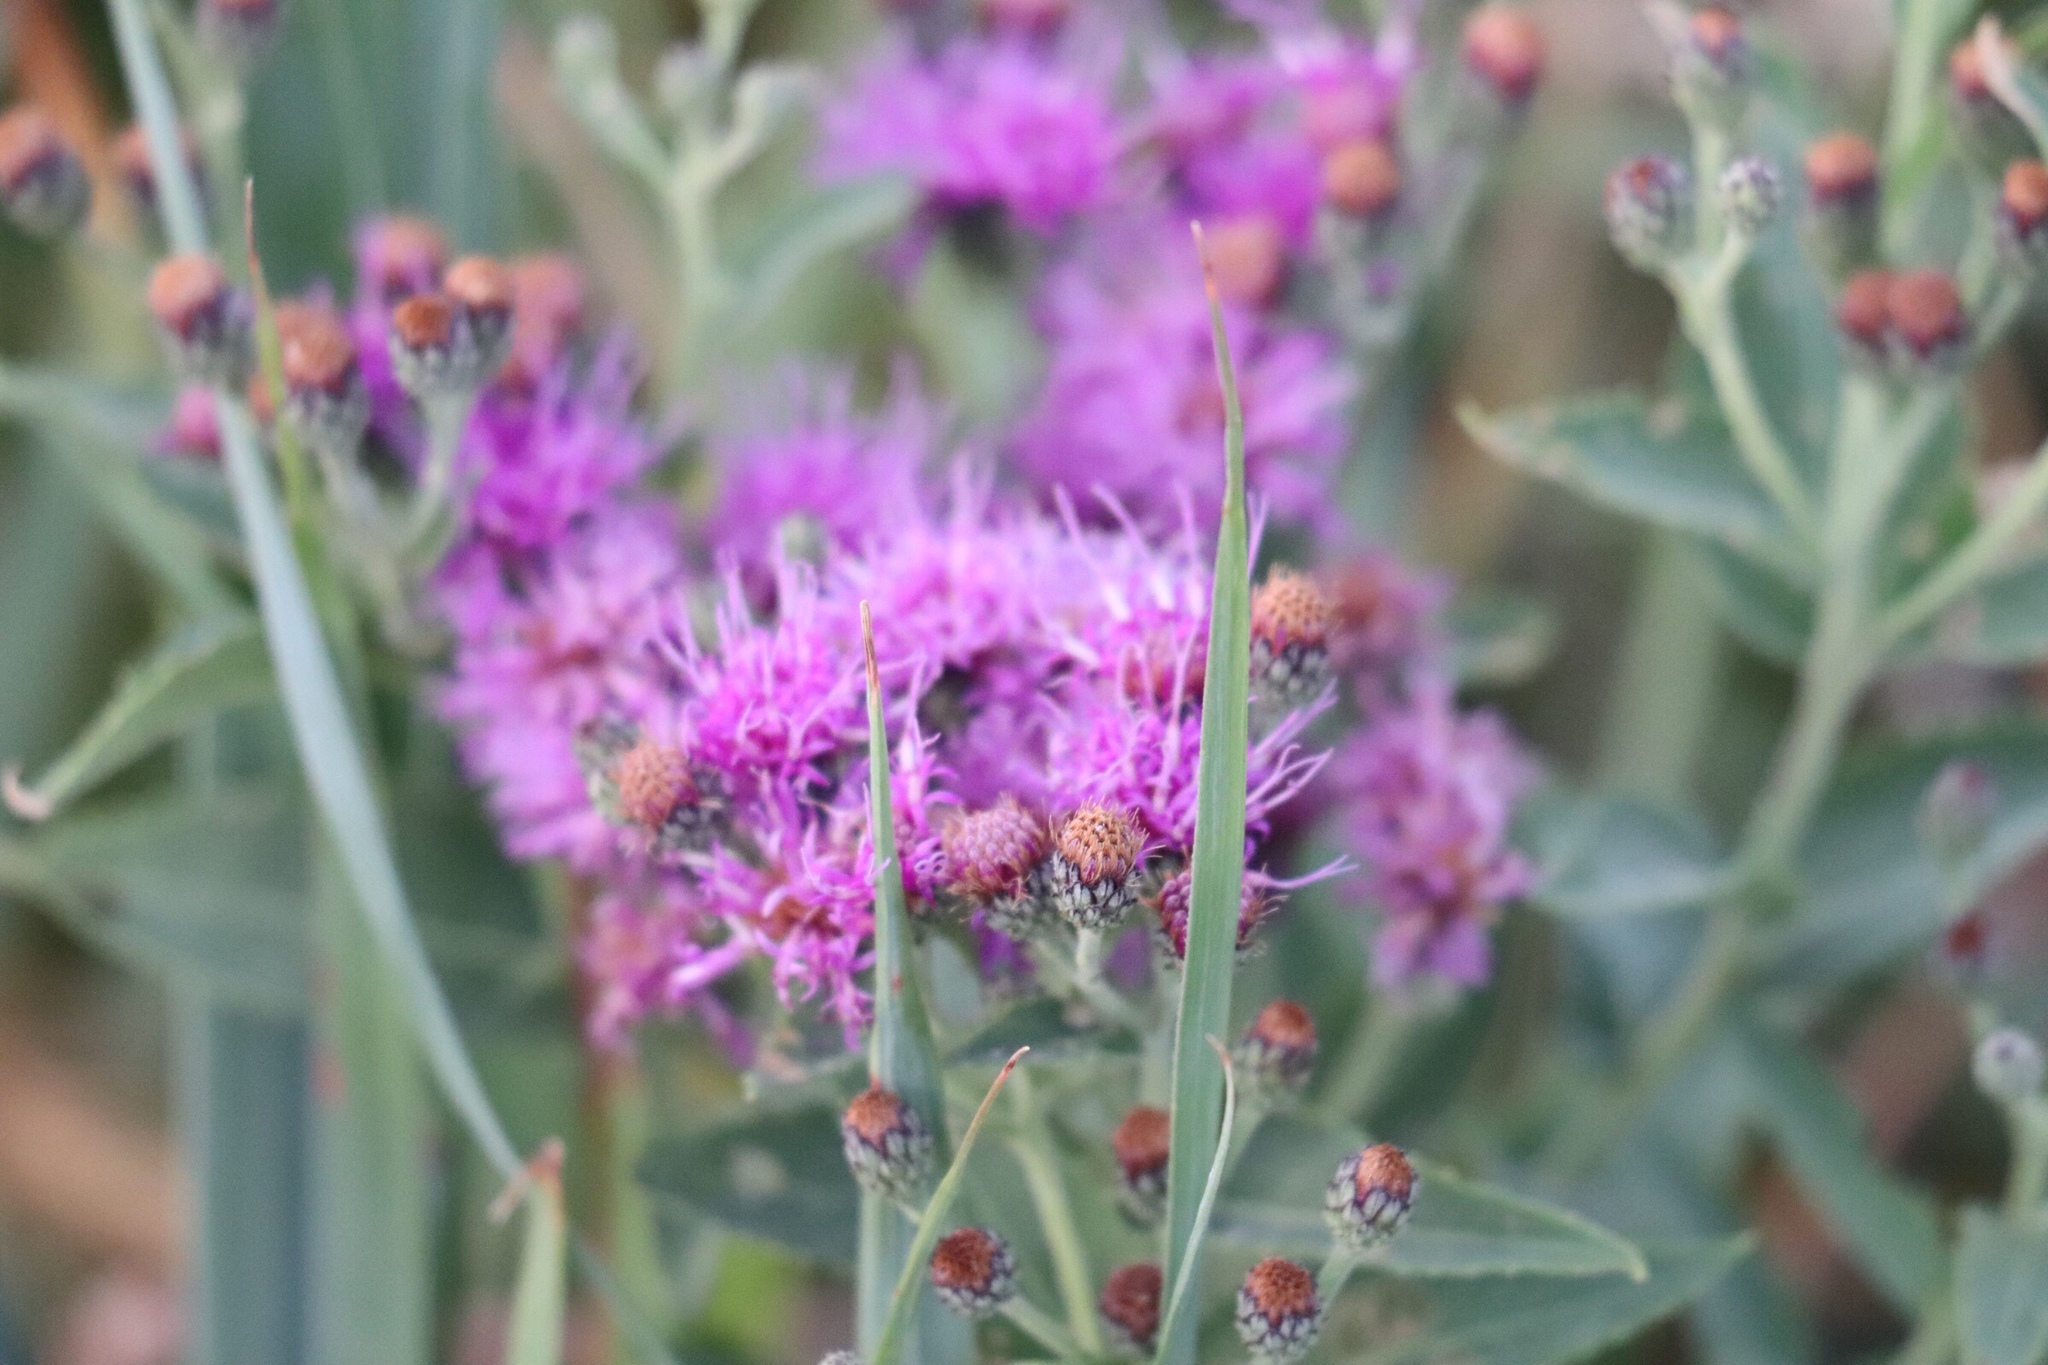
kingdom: Plantae
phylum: Tracheophyta
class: Magnoliopsida
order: Asterales
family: Asteraceae
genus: Vernonia
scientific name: Vernonia baldwinii
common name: Western ironweed
